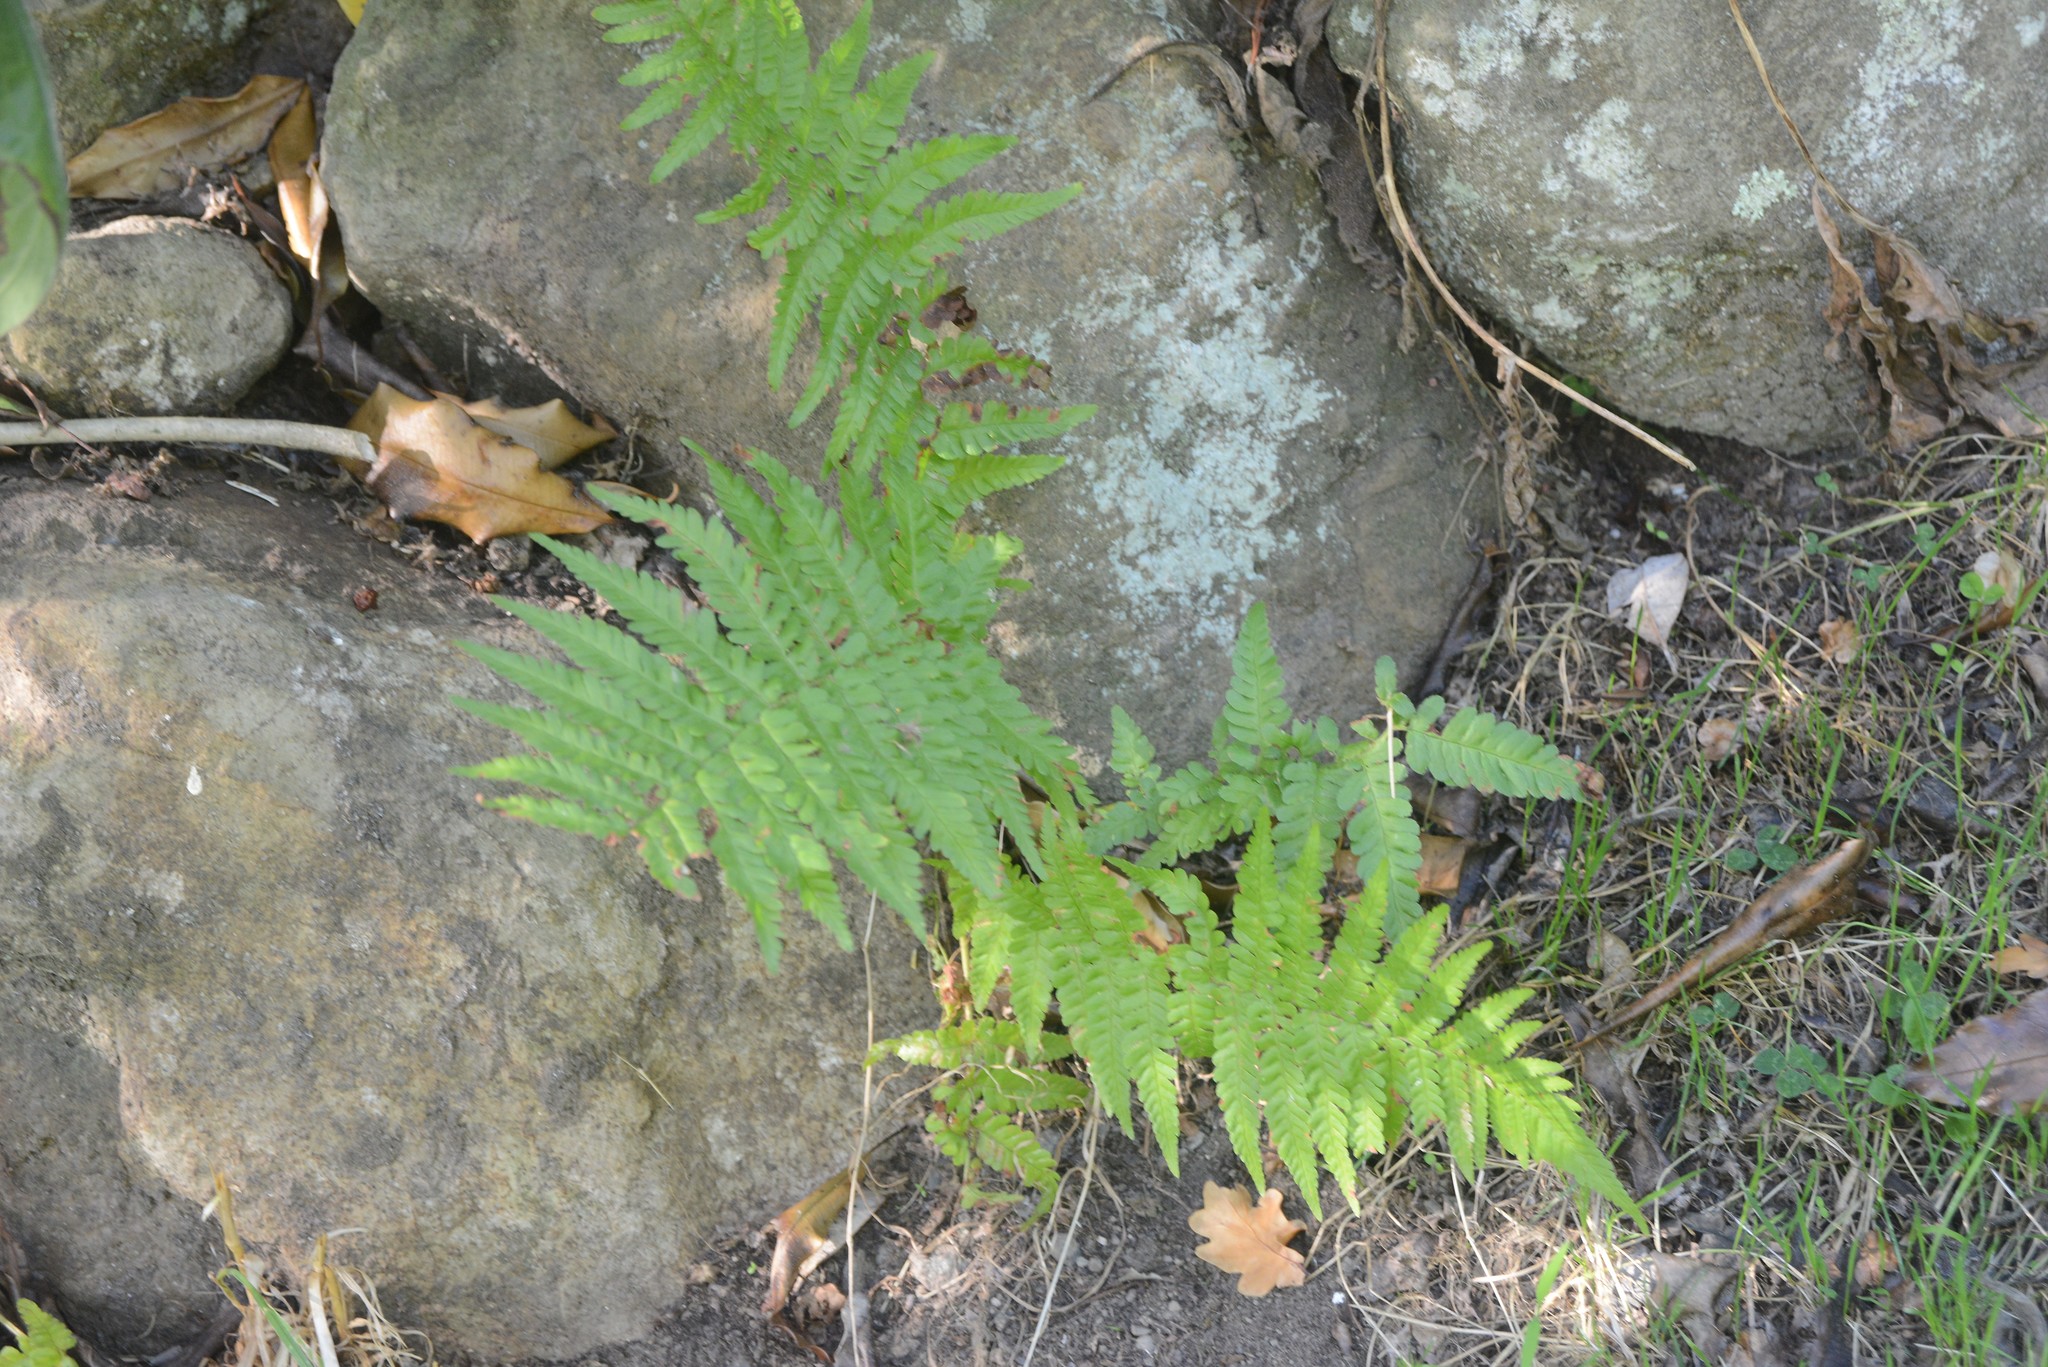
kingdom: Plantae
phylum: Tracheophyta
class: Polypodiopsida
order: Polypodiales
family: Dryopteridaceae
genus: Dryopteris
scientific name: Dryopteris filix-mas
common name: Male fern
